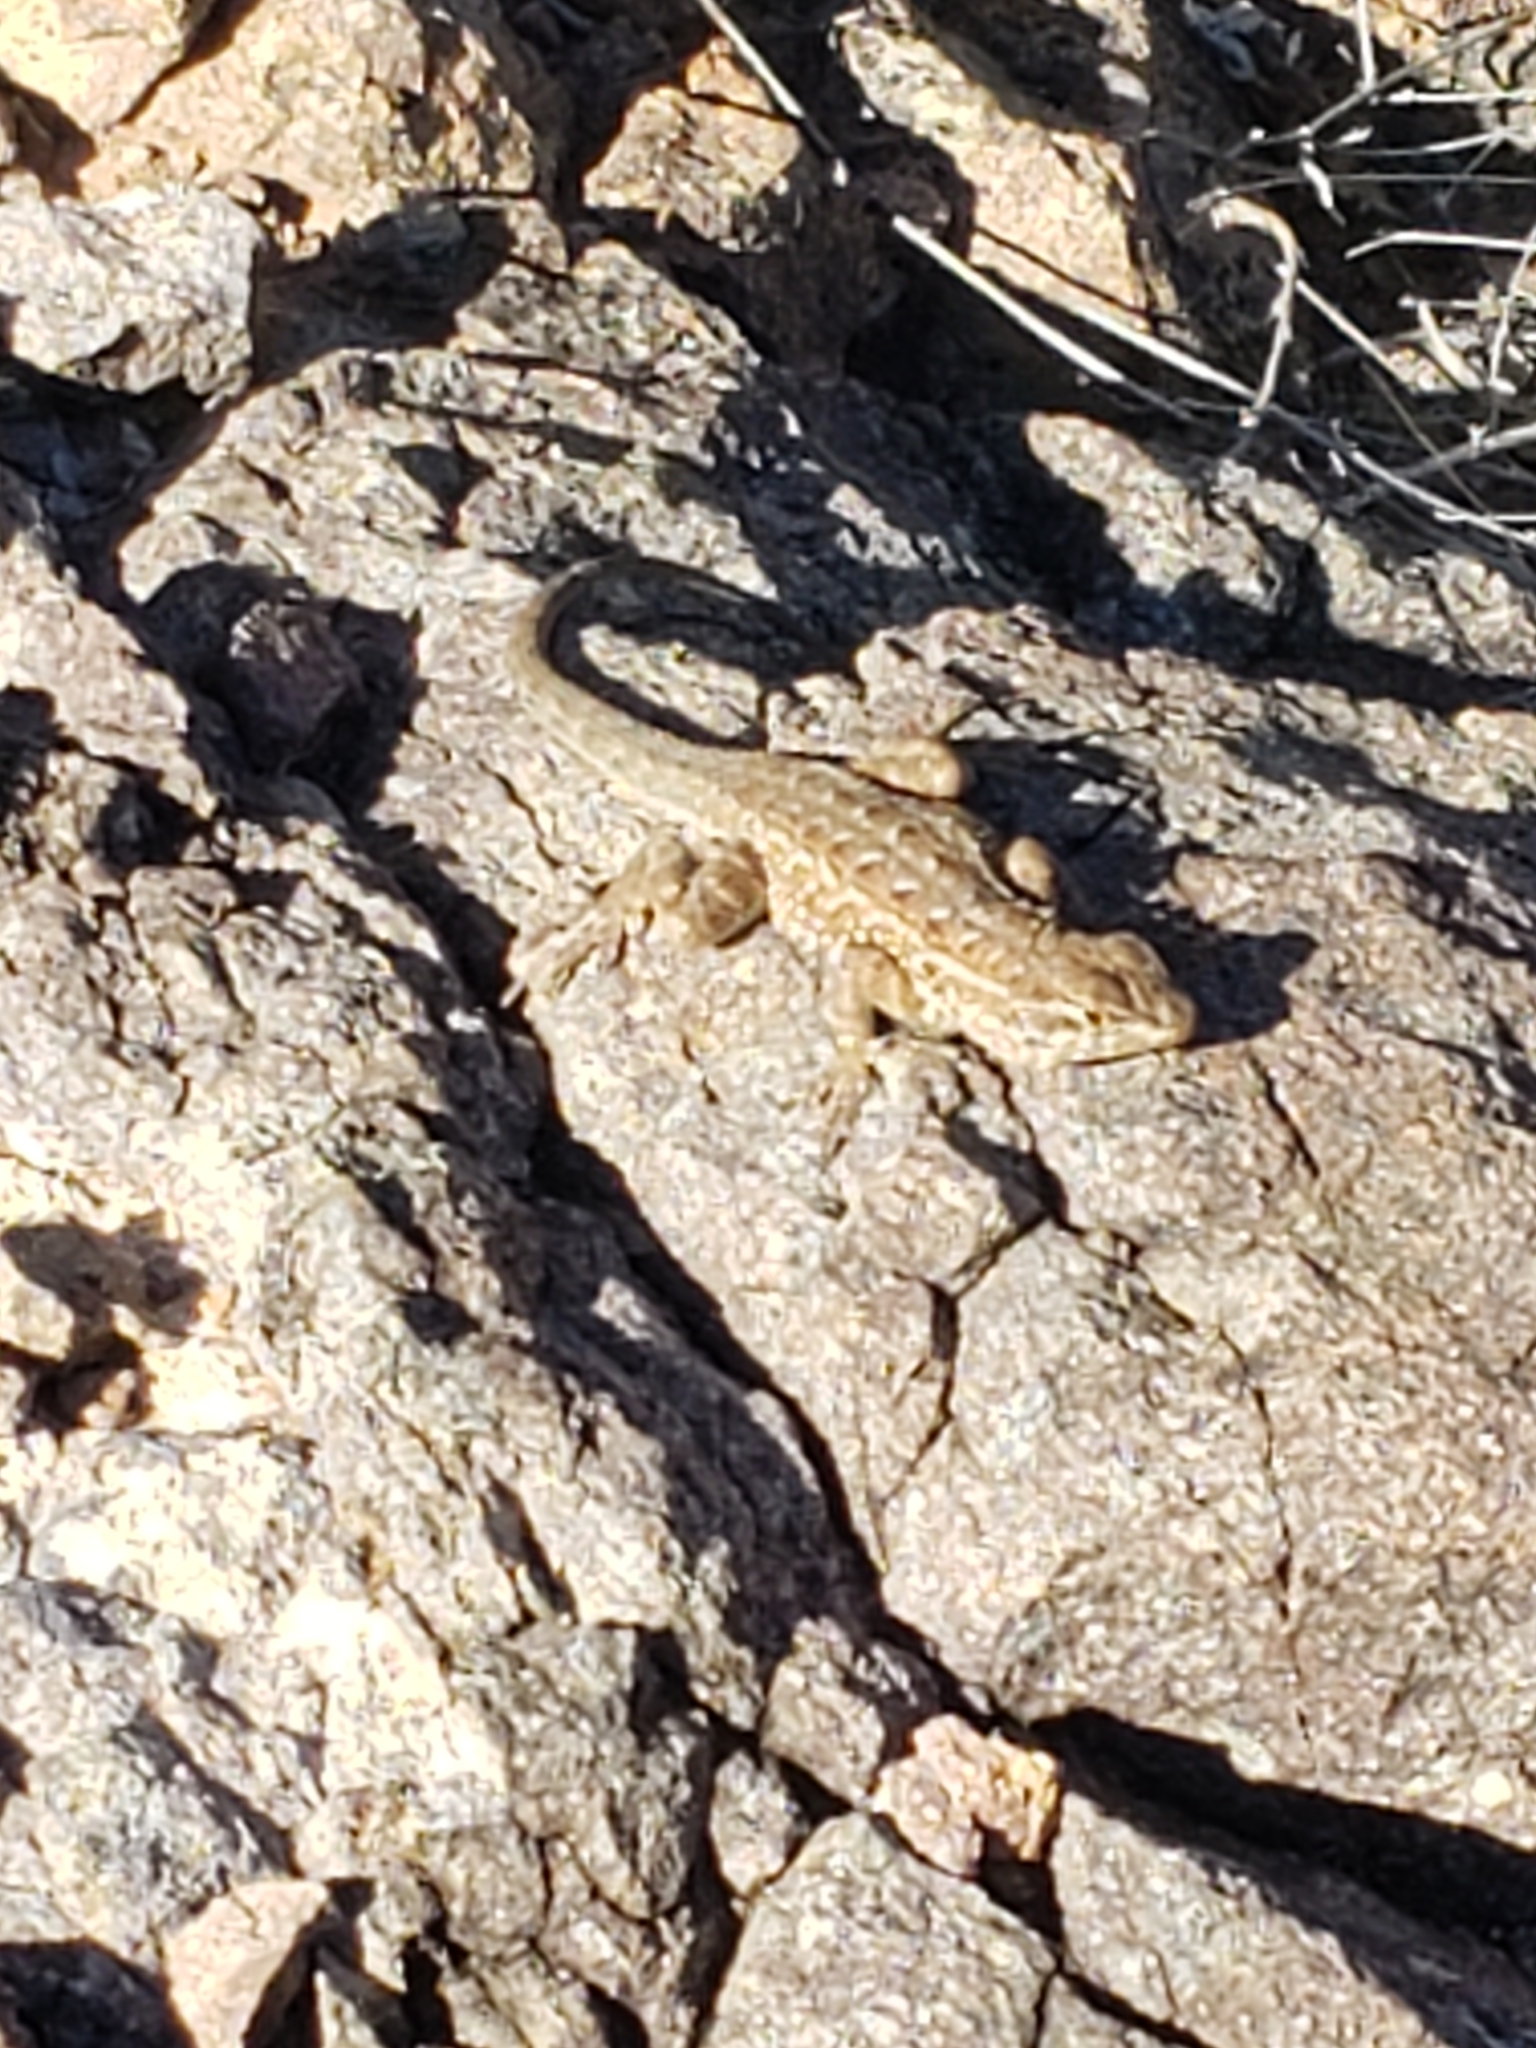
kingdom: Animalia
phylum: Chordata
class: Squamata
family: Phrynosomatidae
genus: Uta
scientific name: Uta stansburiana
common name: Side-blotched lizard
